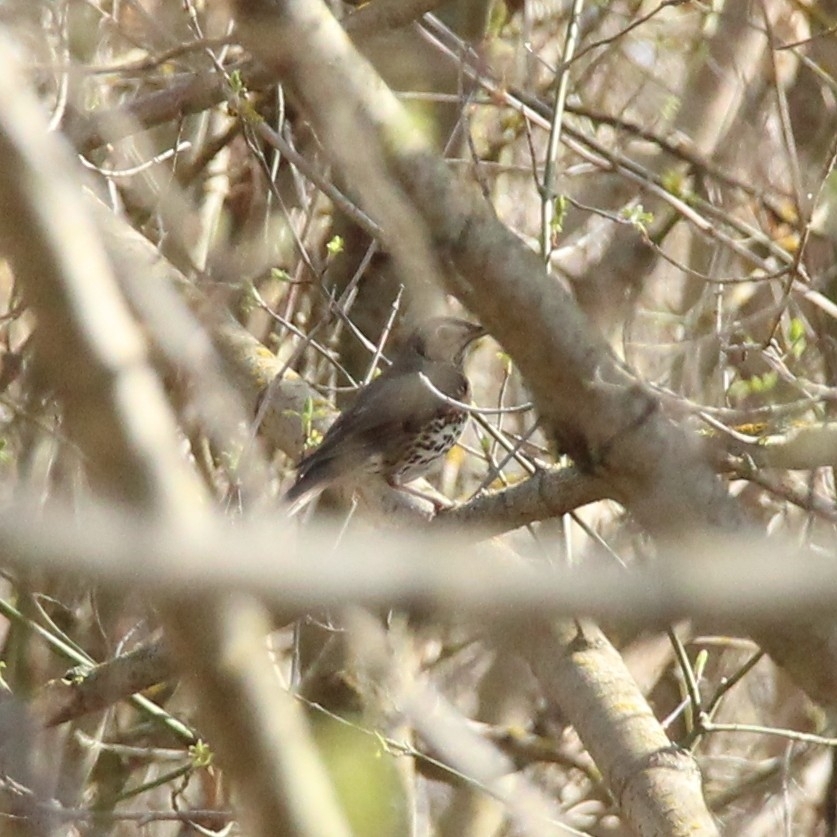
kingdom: Animalia
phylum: Chordata
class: Aves
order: Passeriformes
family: Turdidae
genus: Turdus
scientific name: Turdus philomelos
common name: Song thrush
